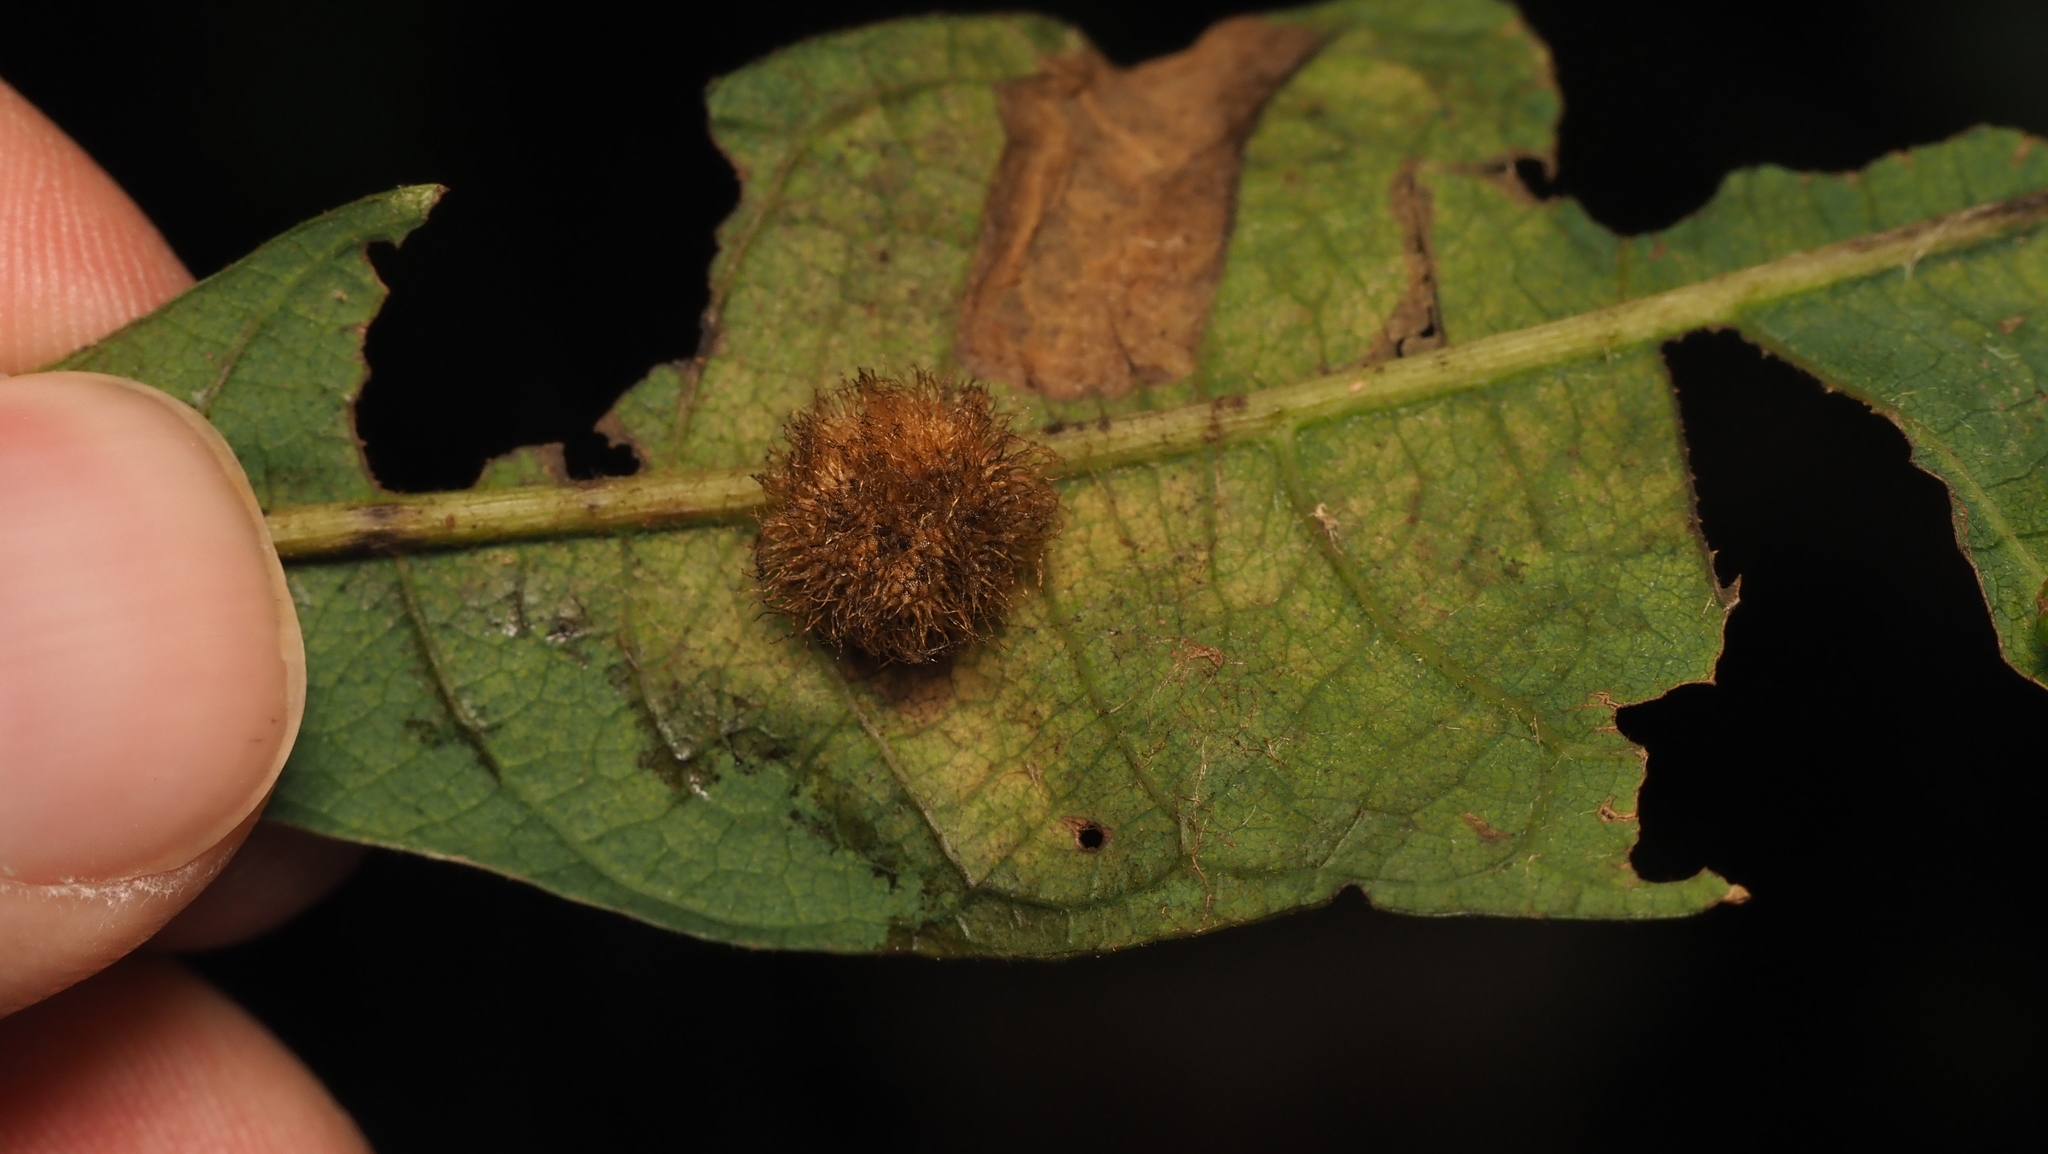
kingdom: Animalia
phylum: Arthropoda
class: Insecta
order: Hymenoptera
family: Cynipidae
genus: Acraspis
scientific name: Acraspis villosa
